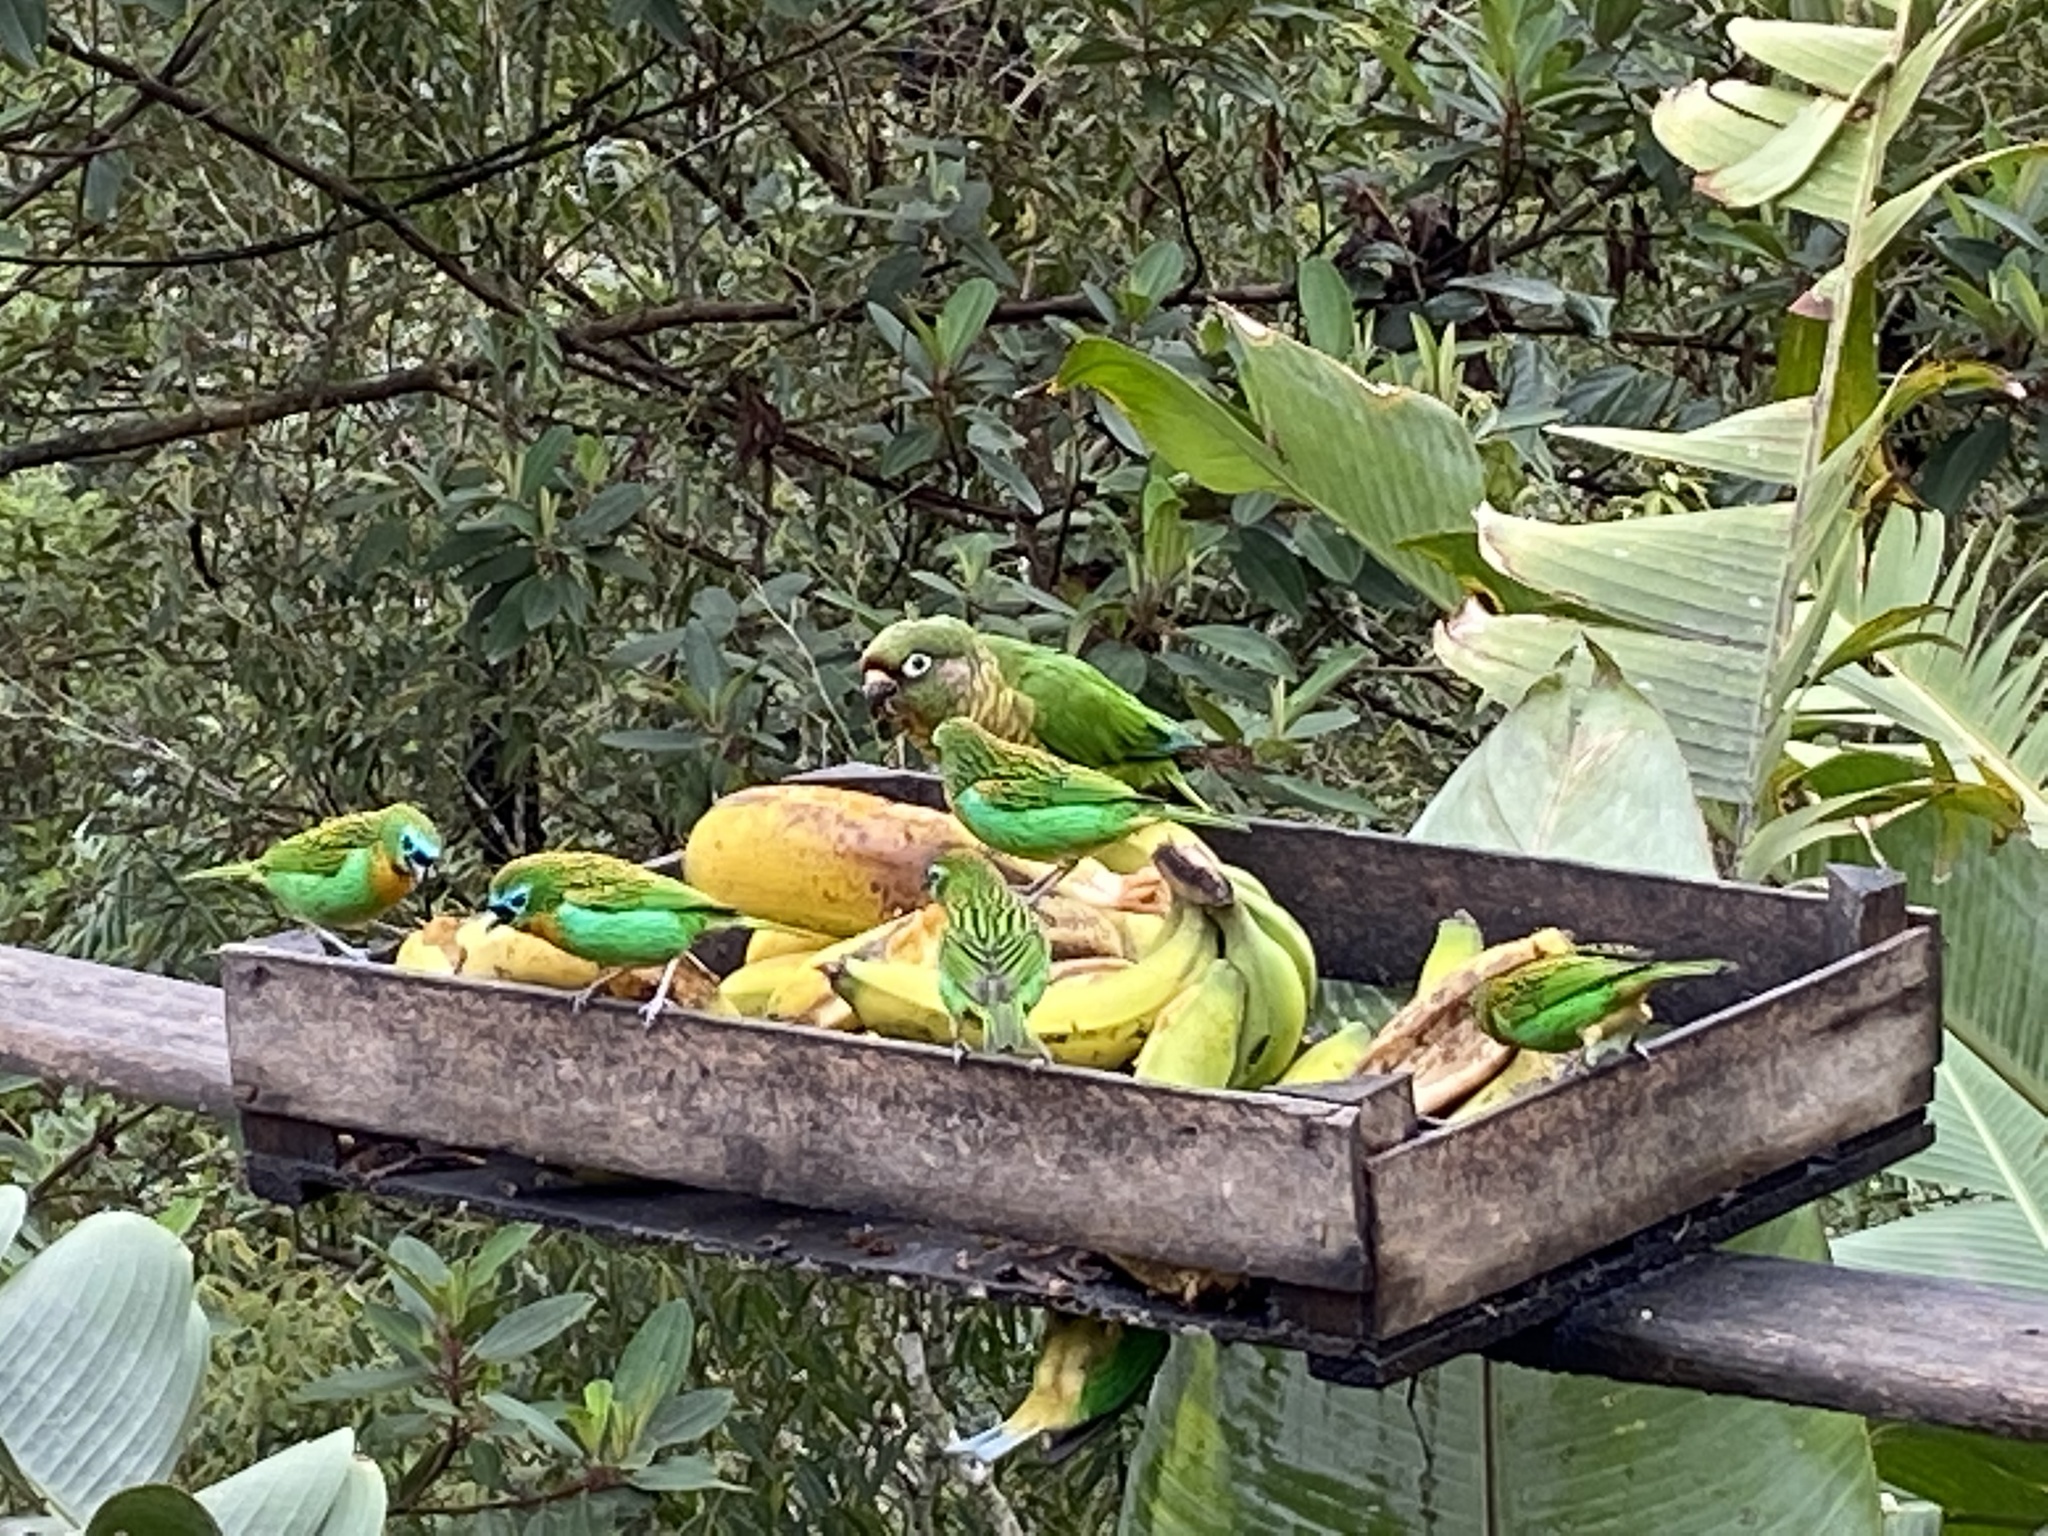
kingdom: Animalia
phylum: Chordata
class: Aves
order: Psittaciformes
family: Psittacidae
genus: Pyrrhura
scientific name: Pyrrhura frontalis
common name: Maroon-bellied parakeet
